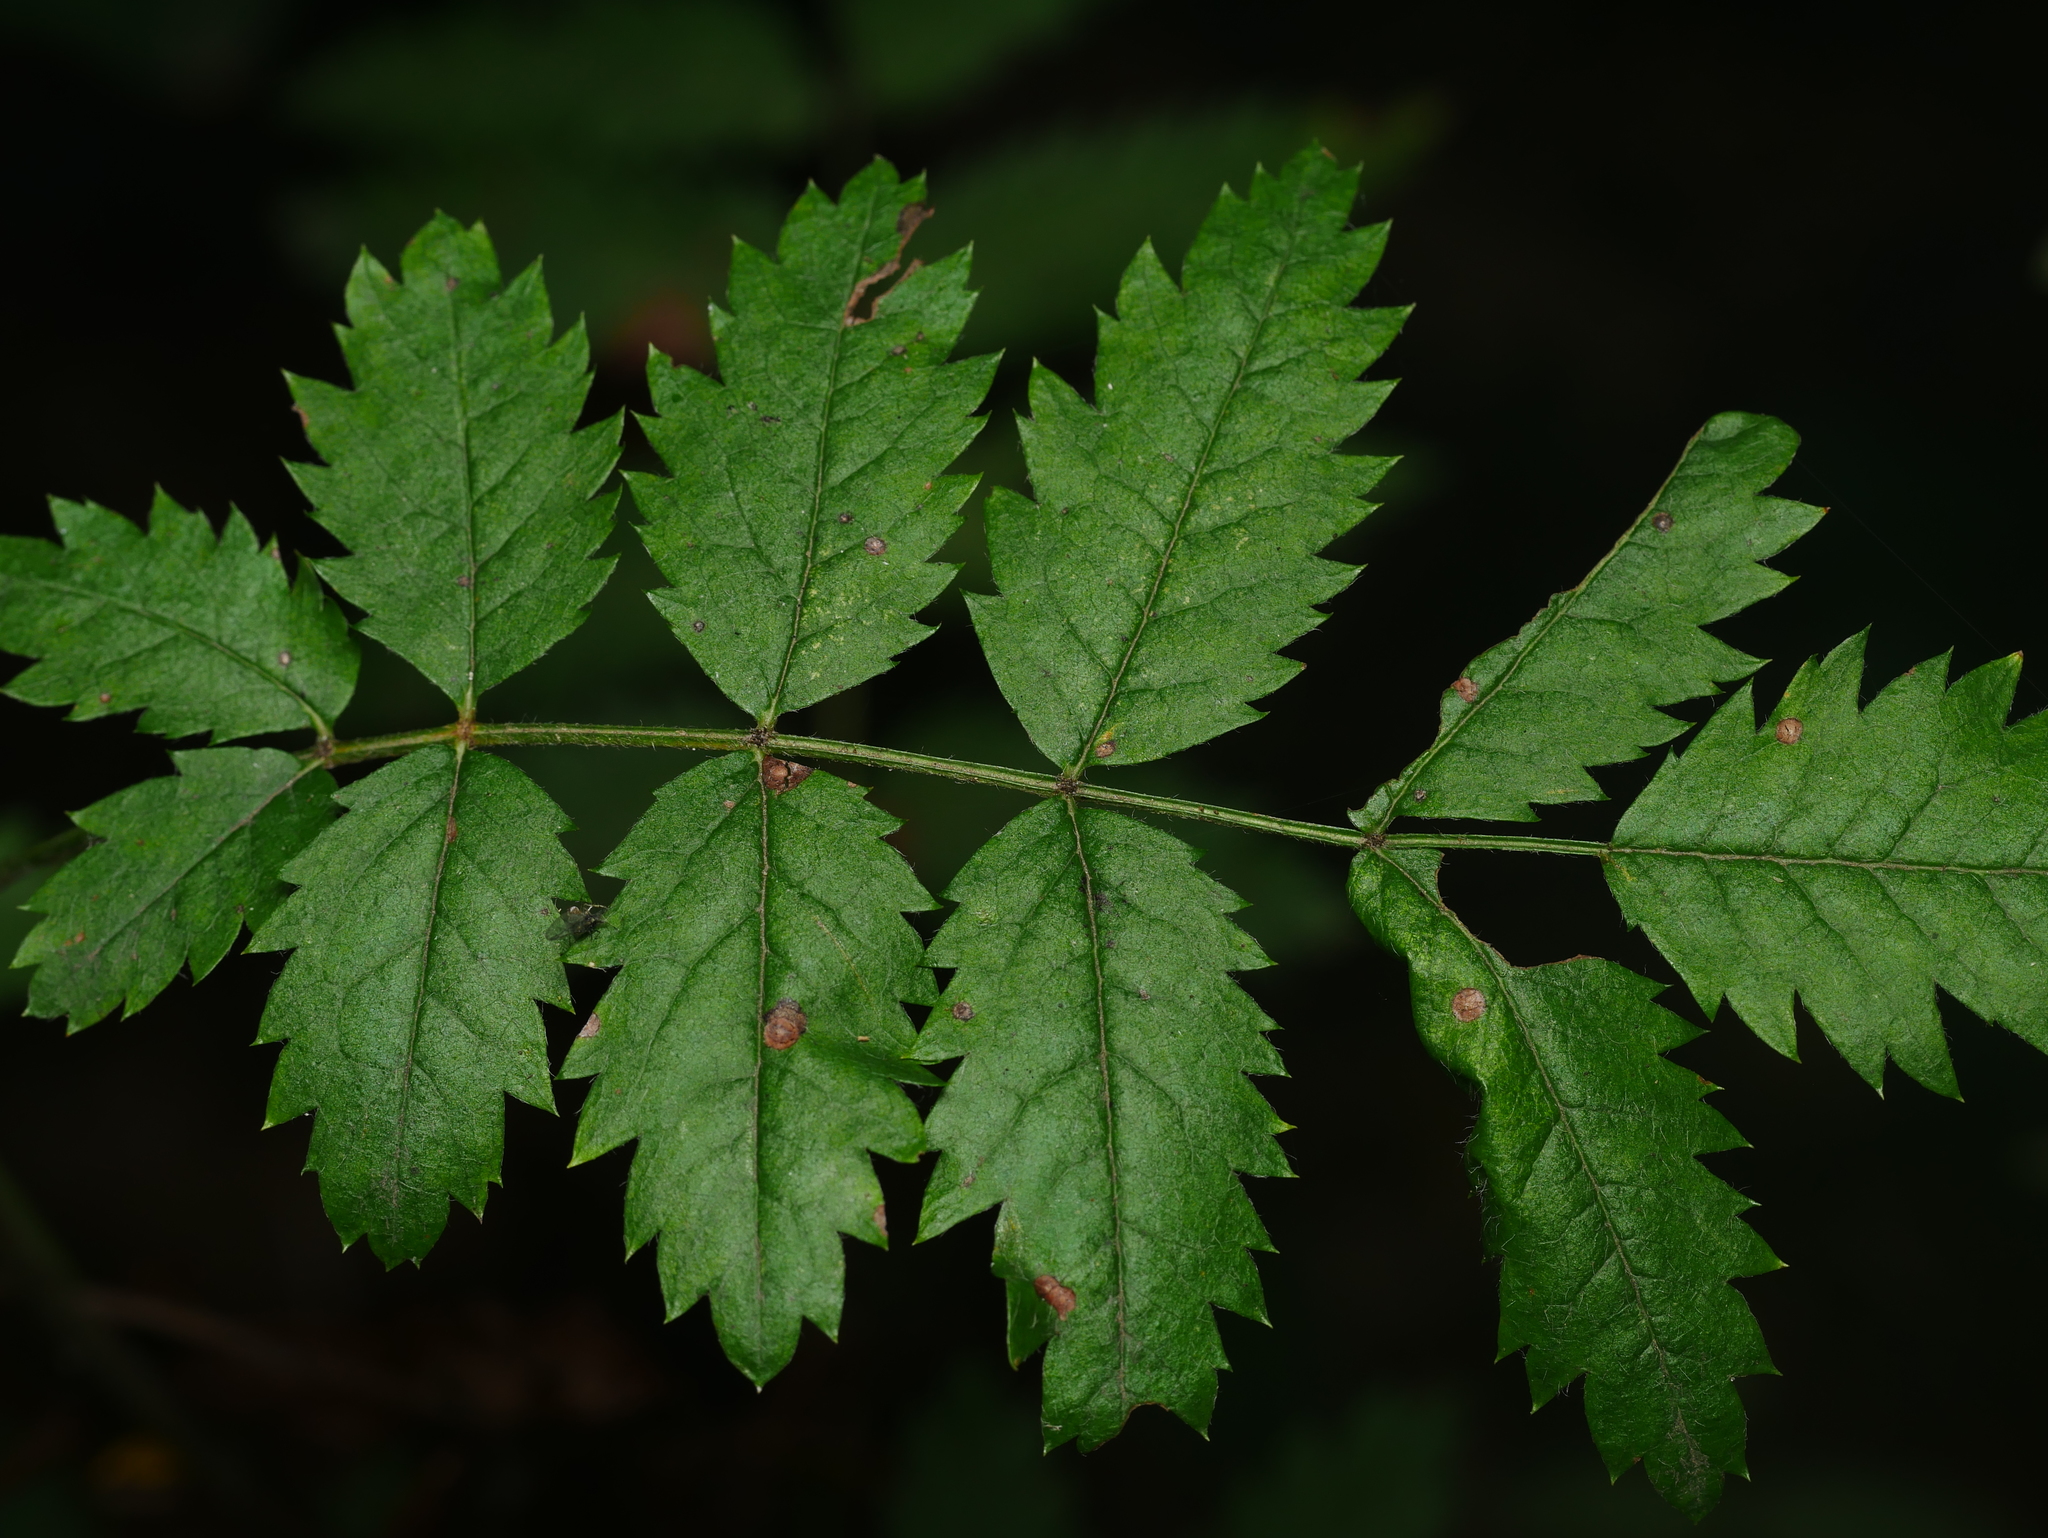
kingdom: Plantae
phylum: Tracheophyta
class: Magnoliopsida
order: Rosales
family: Rosaceae
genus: Sorbus
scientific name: Sorbus aucuparia
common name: Rowan
